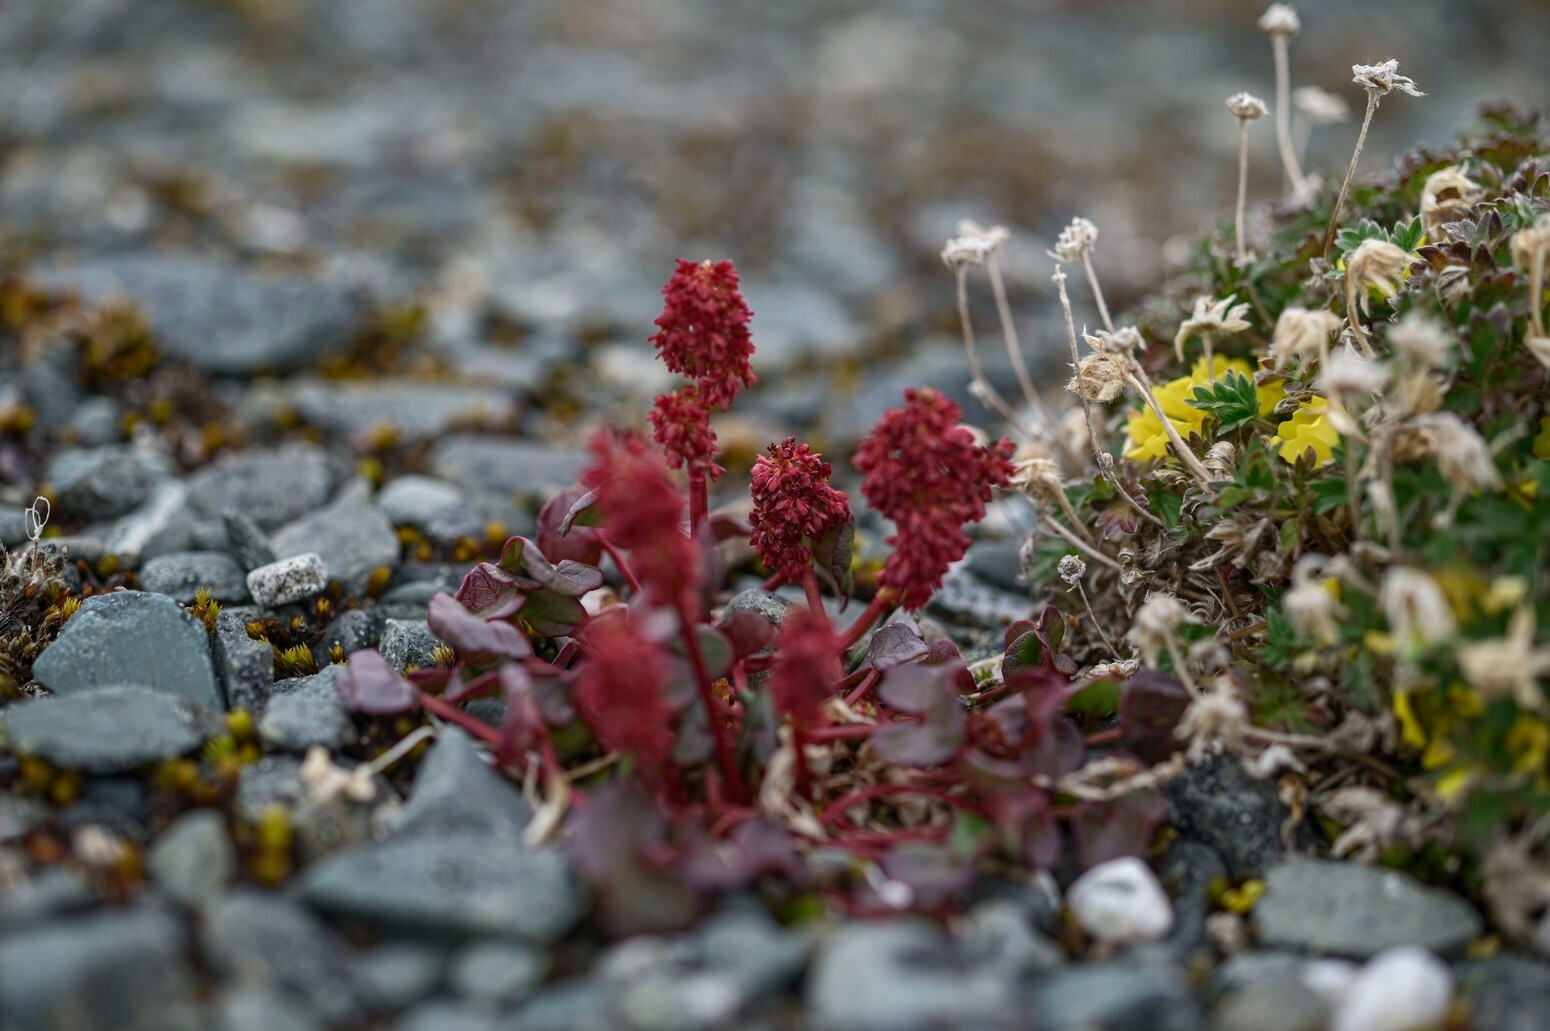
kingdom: Plantae
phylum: Tracheophyta
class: Magnoliopsida
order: Caryophyllales
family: Polygonaceae
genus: Oxyria
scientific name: Oxyria digyna
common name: Alpine mountain-sorrel
